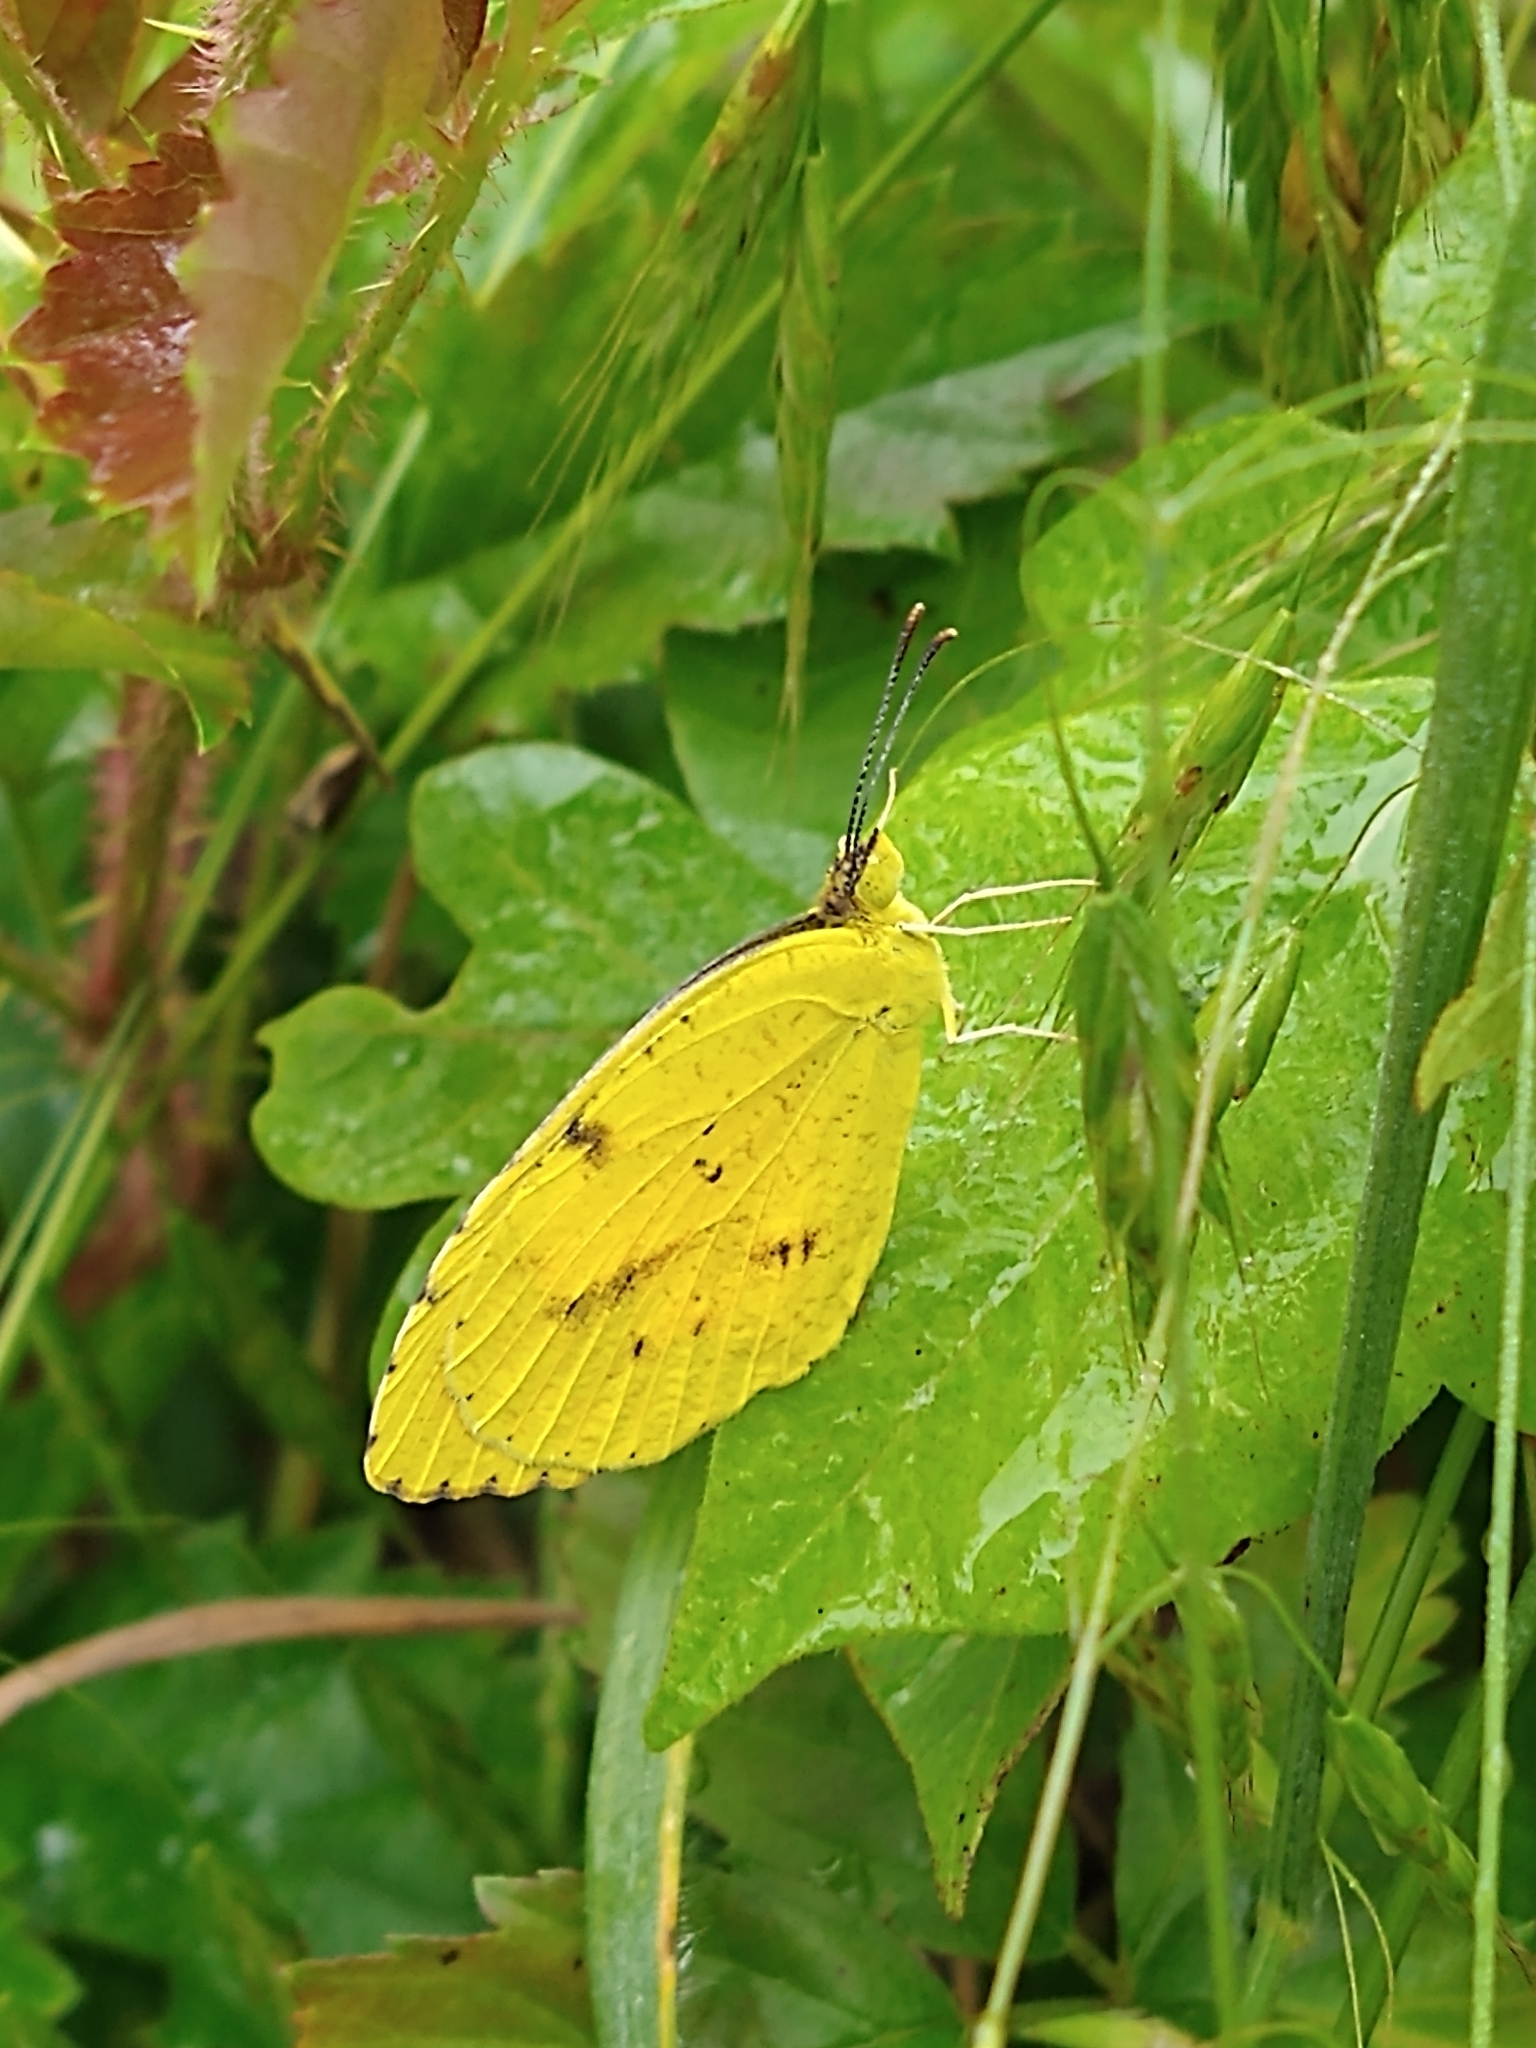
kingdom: Animalia
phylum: Arthropoda
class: Insecta
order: Lepidoptera
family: Pieridae
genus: Abaeis
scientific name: Abaeis nicippe
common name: Sleepy orange
